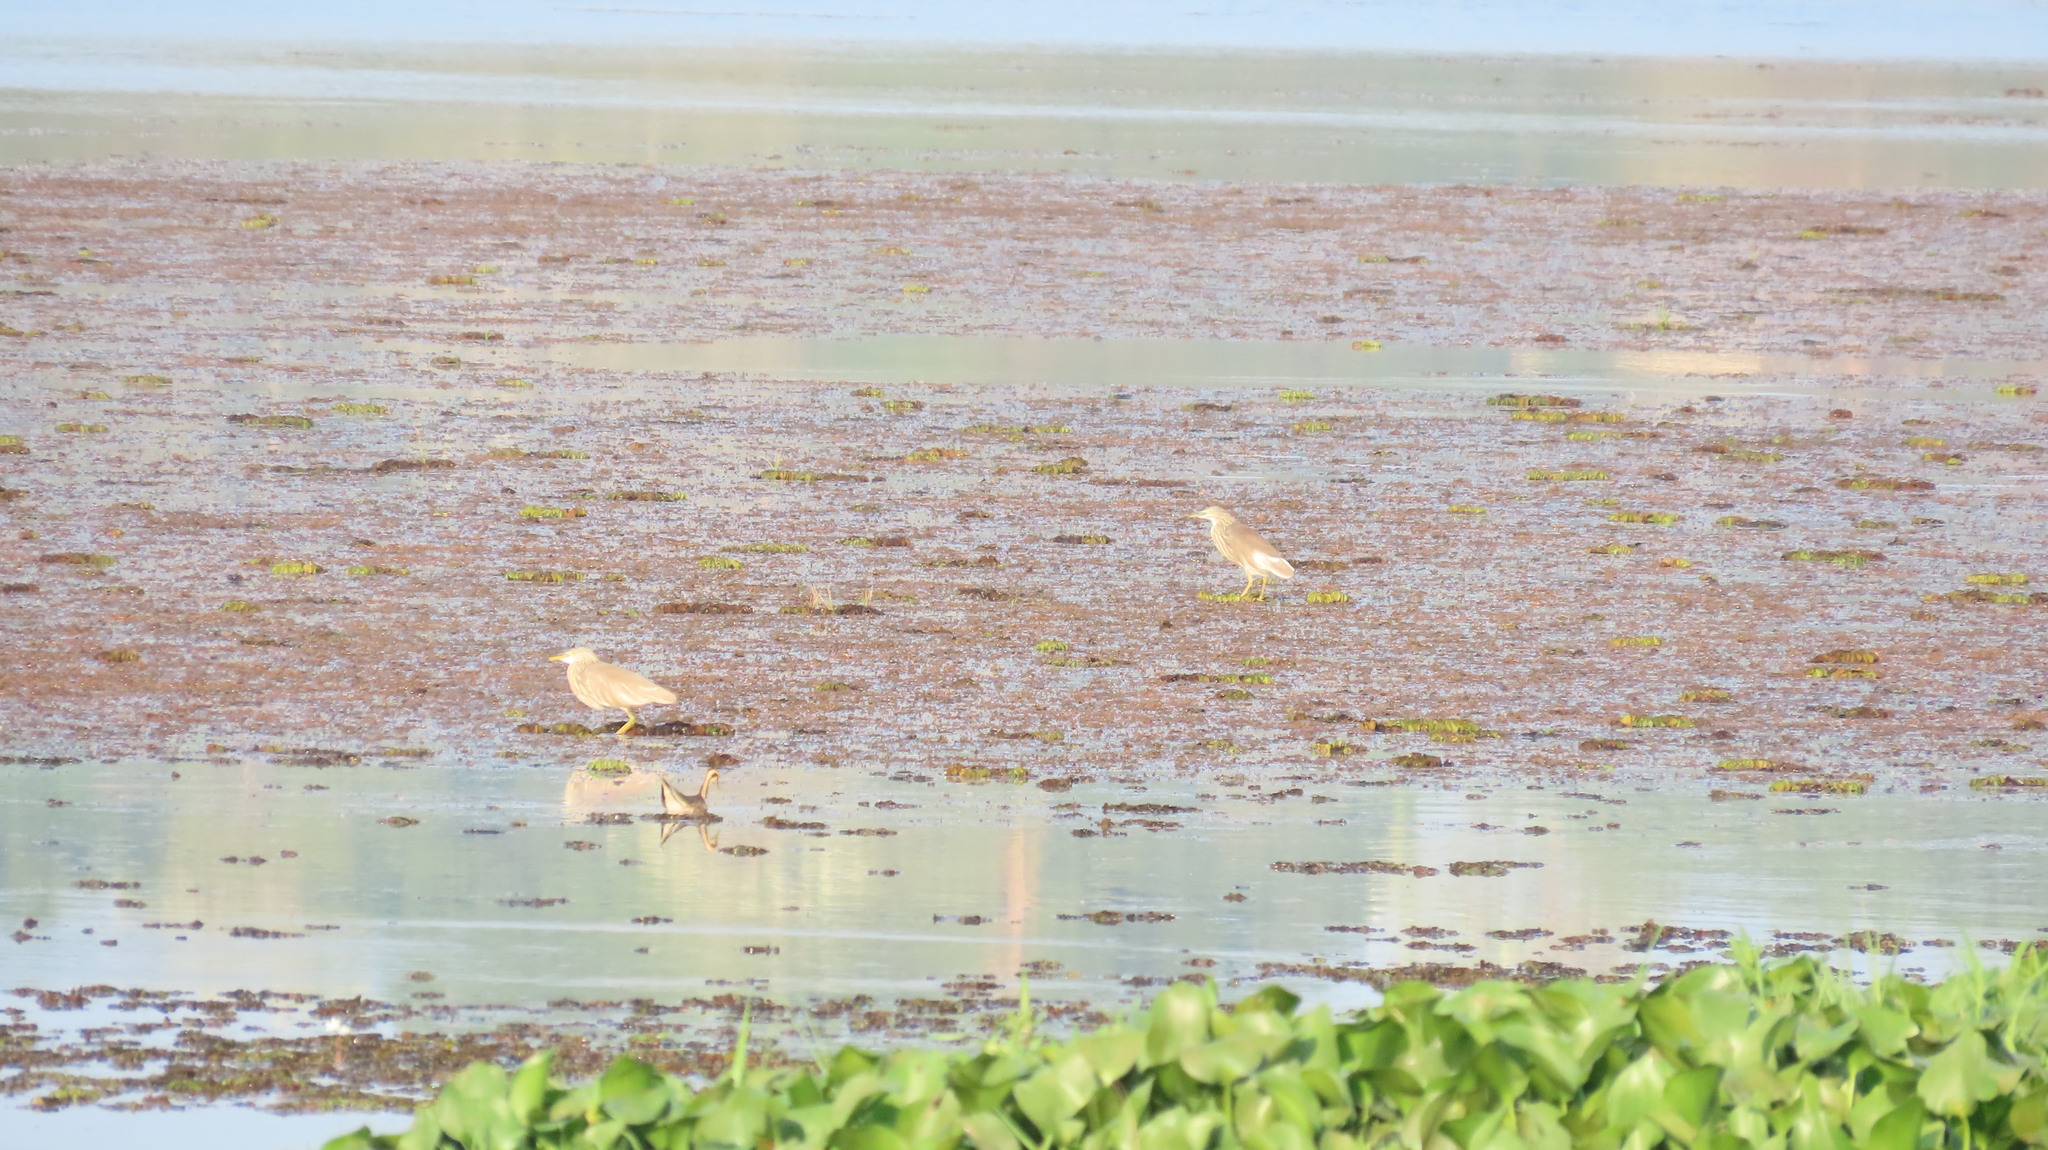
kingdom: Animalia
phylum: Chordata
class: Aves
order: Pelecaniformes
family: Ardeidae
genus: Ardeola
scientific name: Ardeola grayii
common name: Indian pond heron
